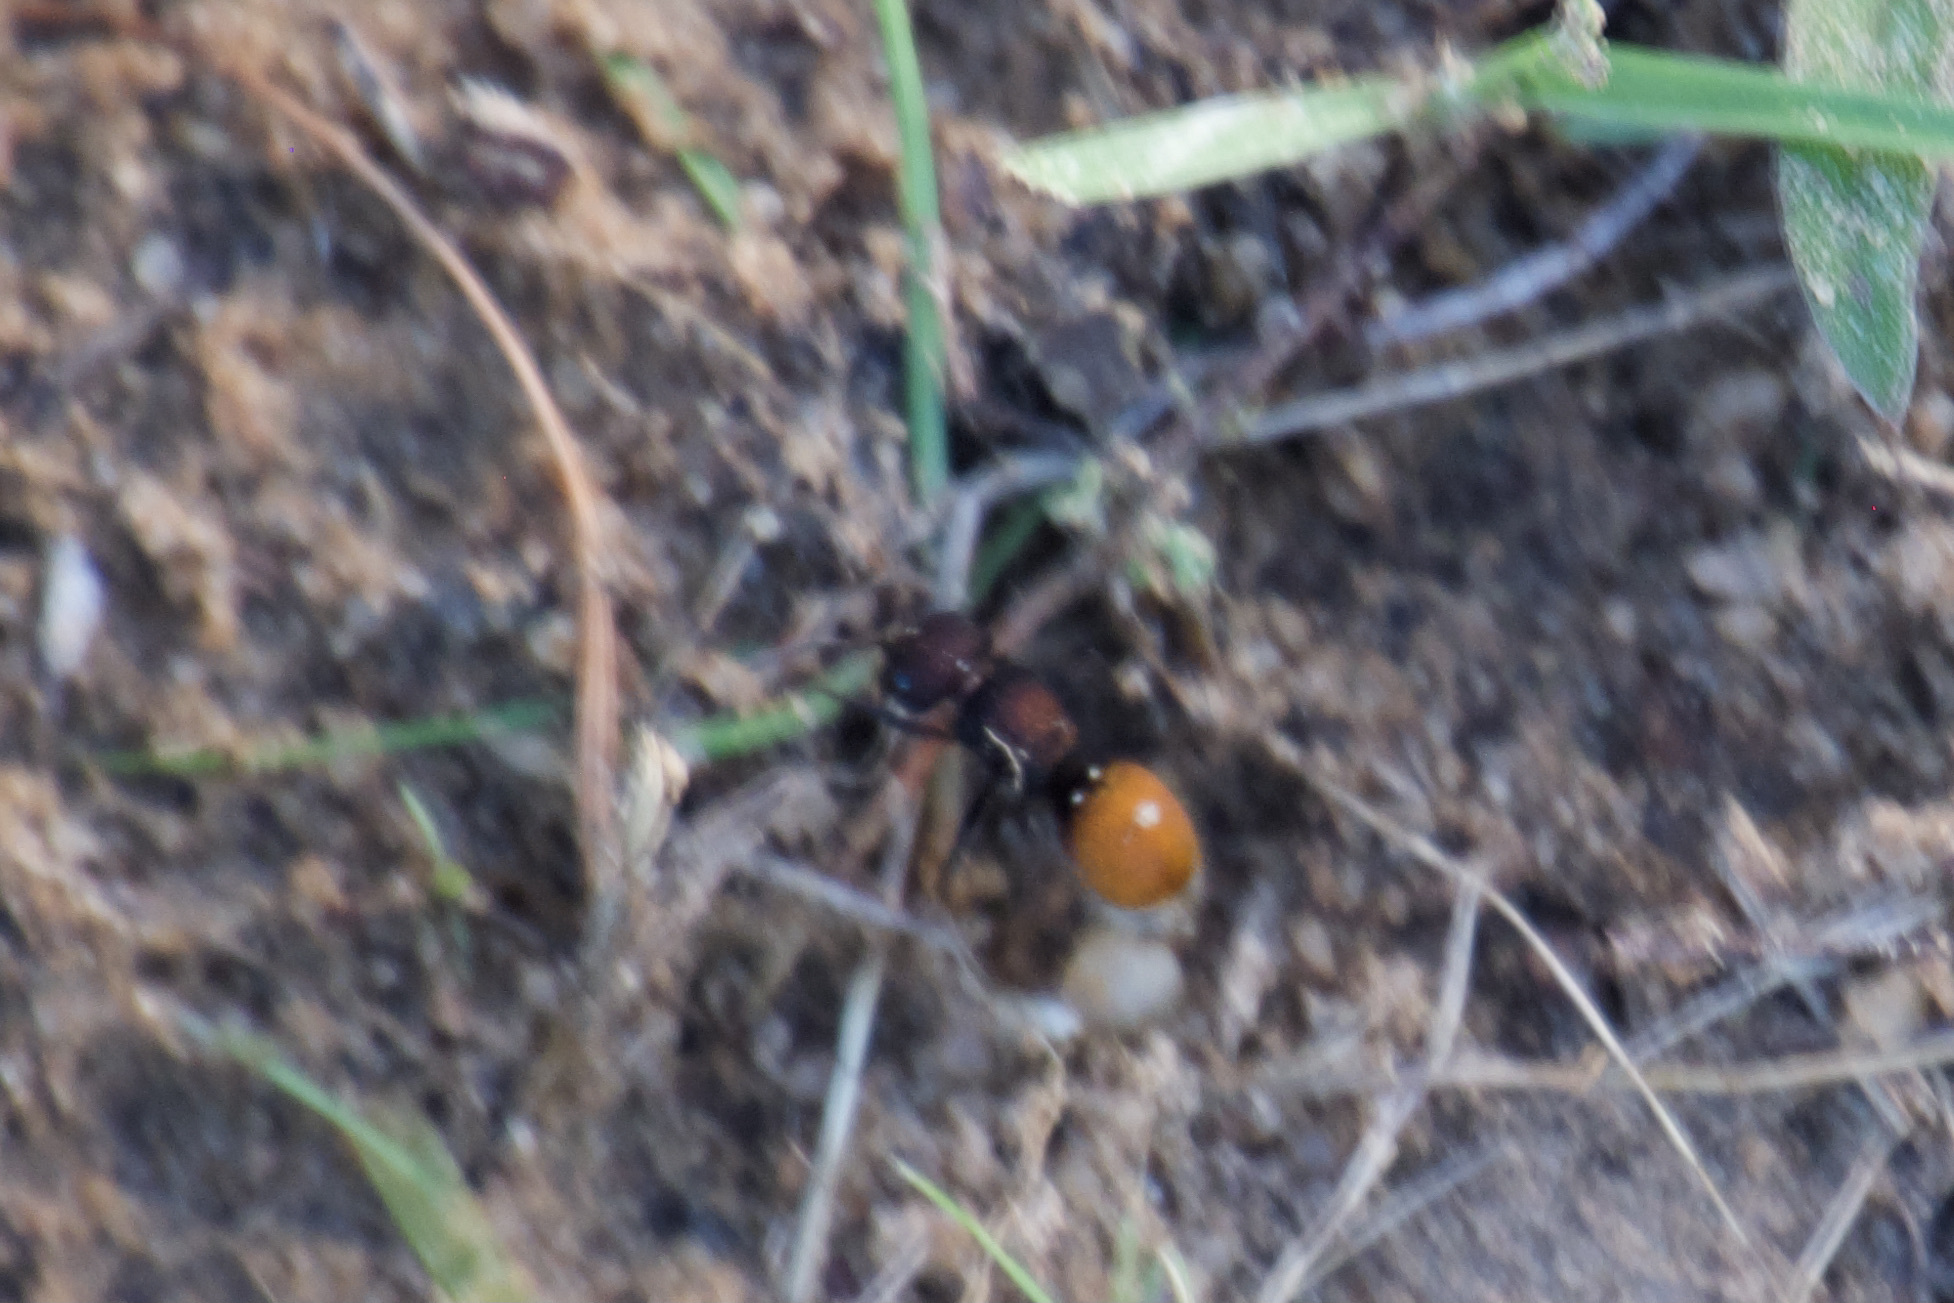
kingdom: Animalia
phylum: Arthropoda
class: Insecta
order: Hymenoptera
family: Mutillidae
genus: Pseudomethoca
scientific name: Pseudomethoca
